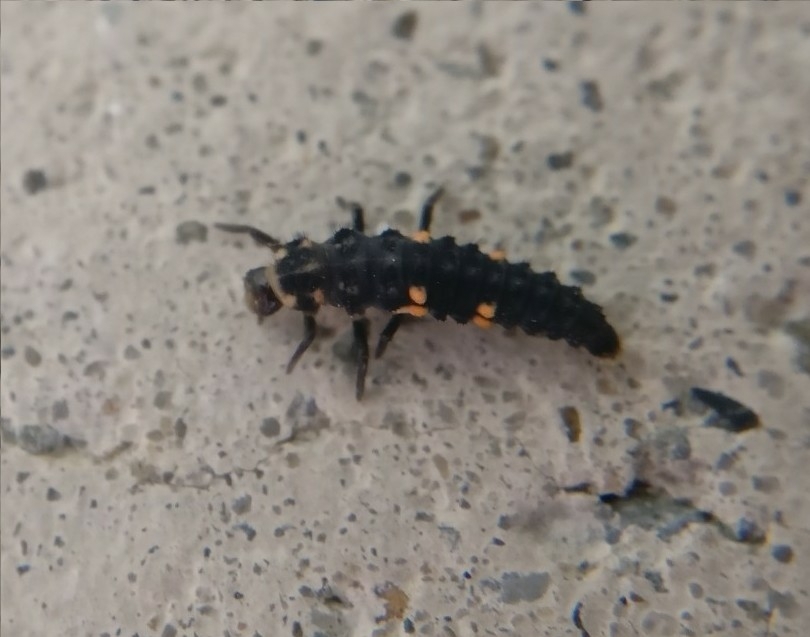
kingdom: Animalia
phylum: Arthropoda
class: Insecta
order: Coleoptera
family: Coccinellidae
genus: Coccinella
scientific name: Coccinella undecimpunctata
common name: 11-spot ladybird
